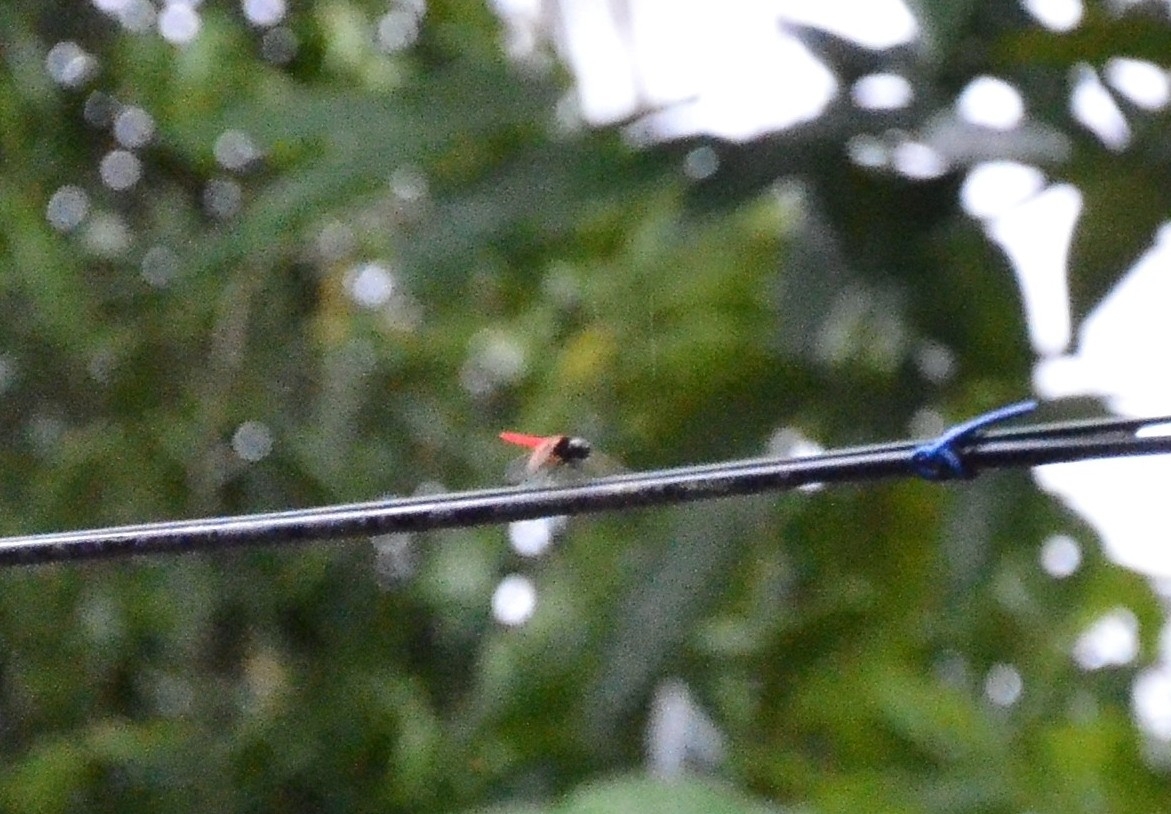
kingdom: Animalia
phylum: Arthropoda
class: Insecta
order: Odonata
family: Libellulidae
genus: Aethriamanta
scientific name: Aethriamanta brevipennis
